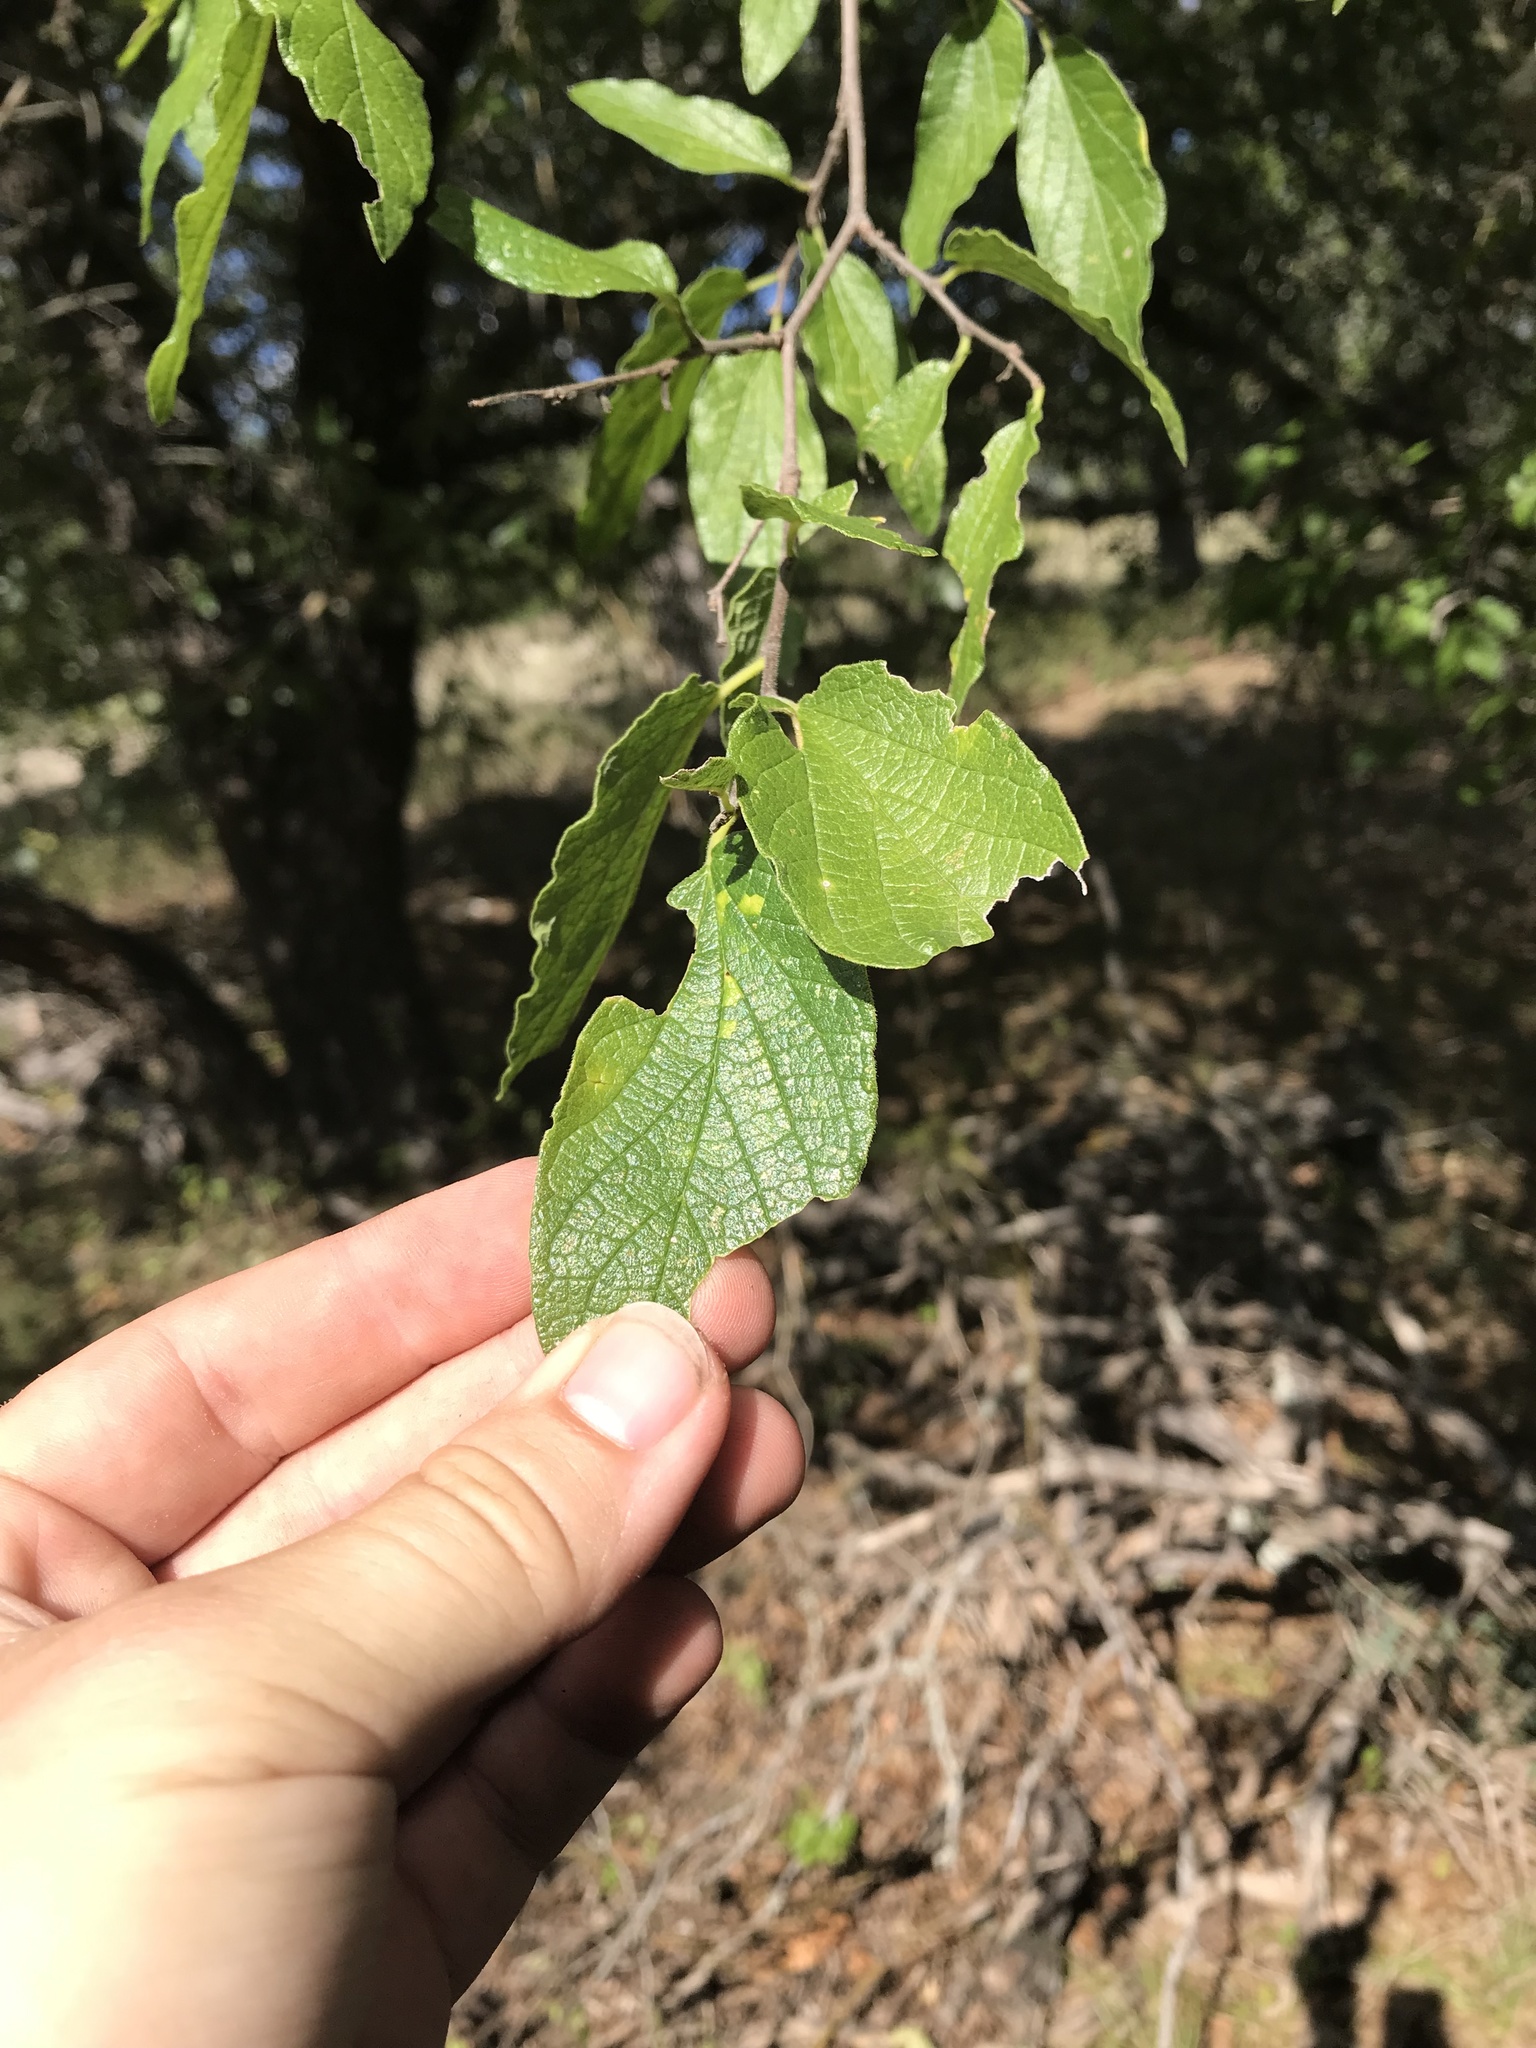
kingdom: Plantae
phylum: Tracheophyta
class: Magnoliopsida
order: Rosales
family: Cannabaceae
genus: Celtis
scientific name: Celtis reticulata
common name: Netleaf hackberry
